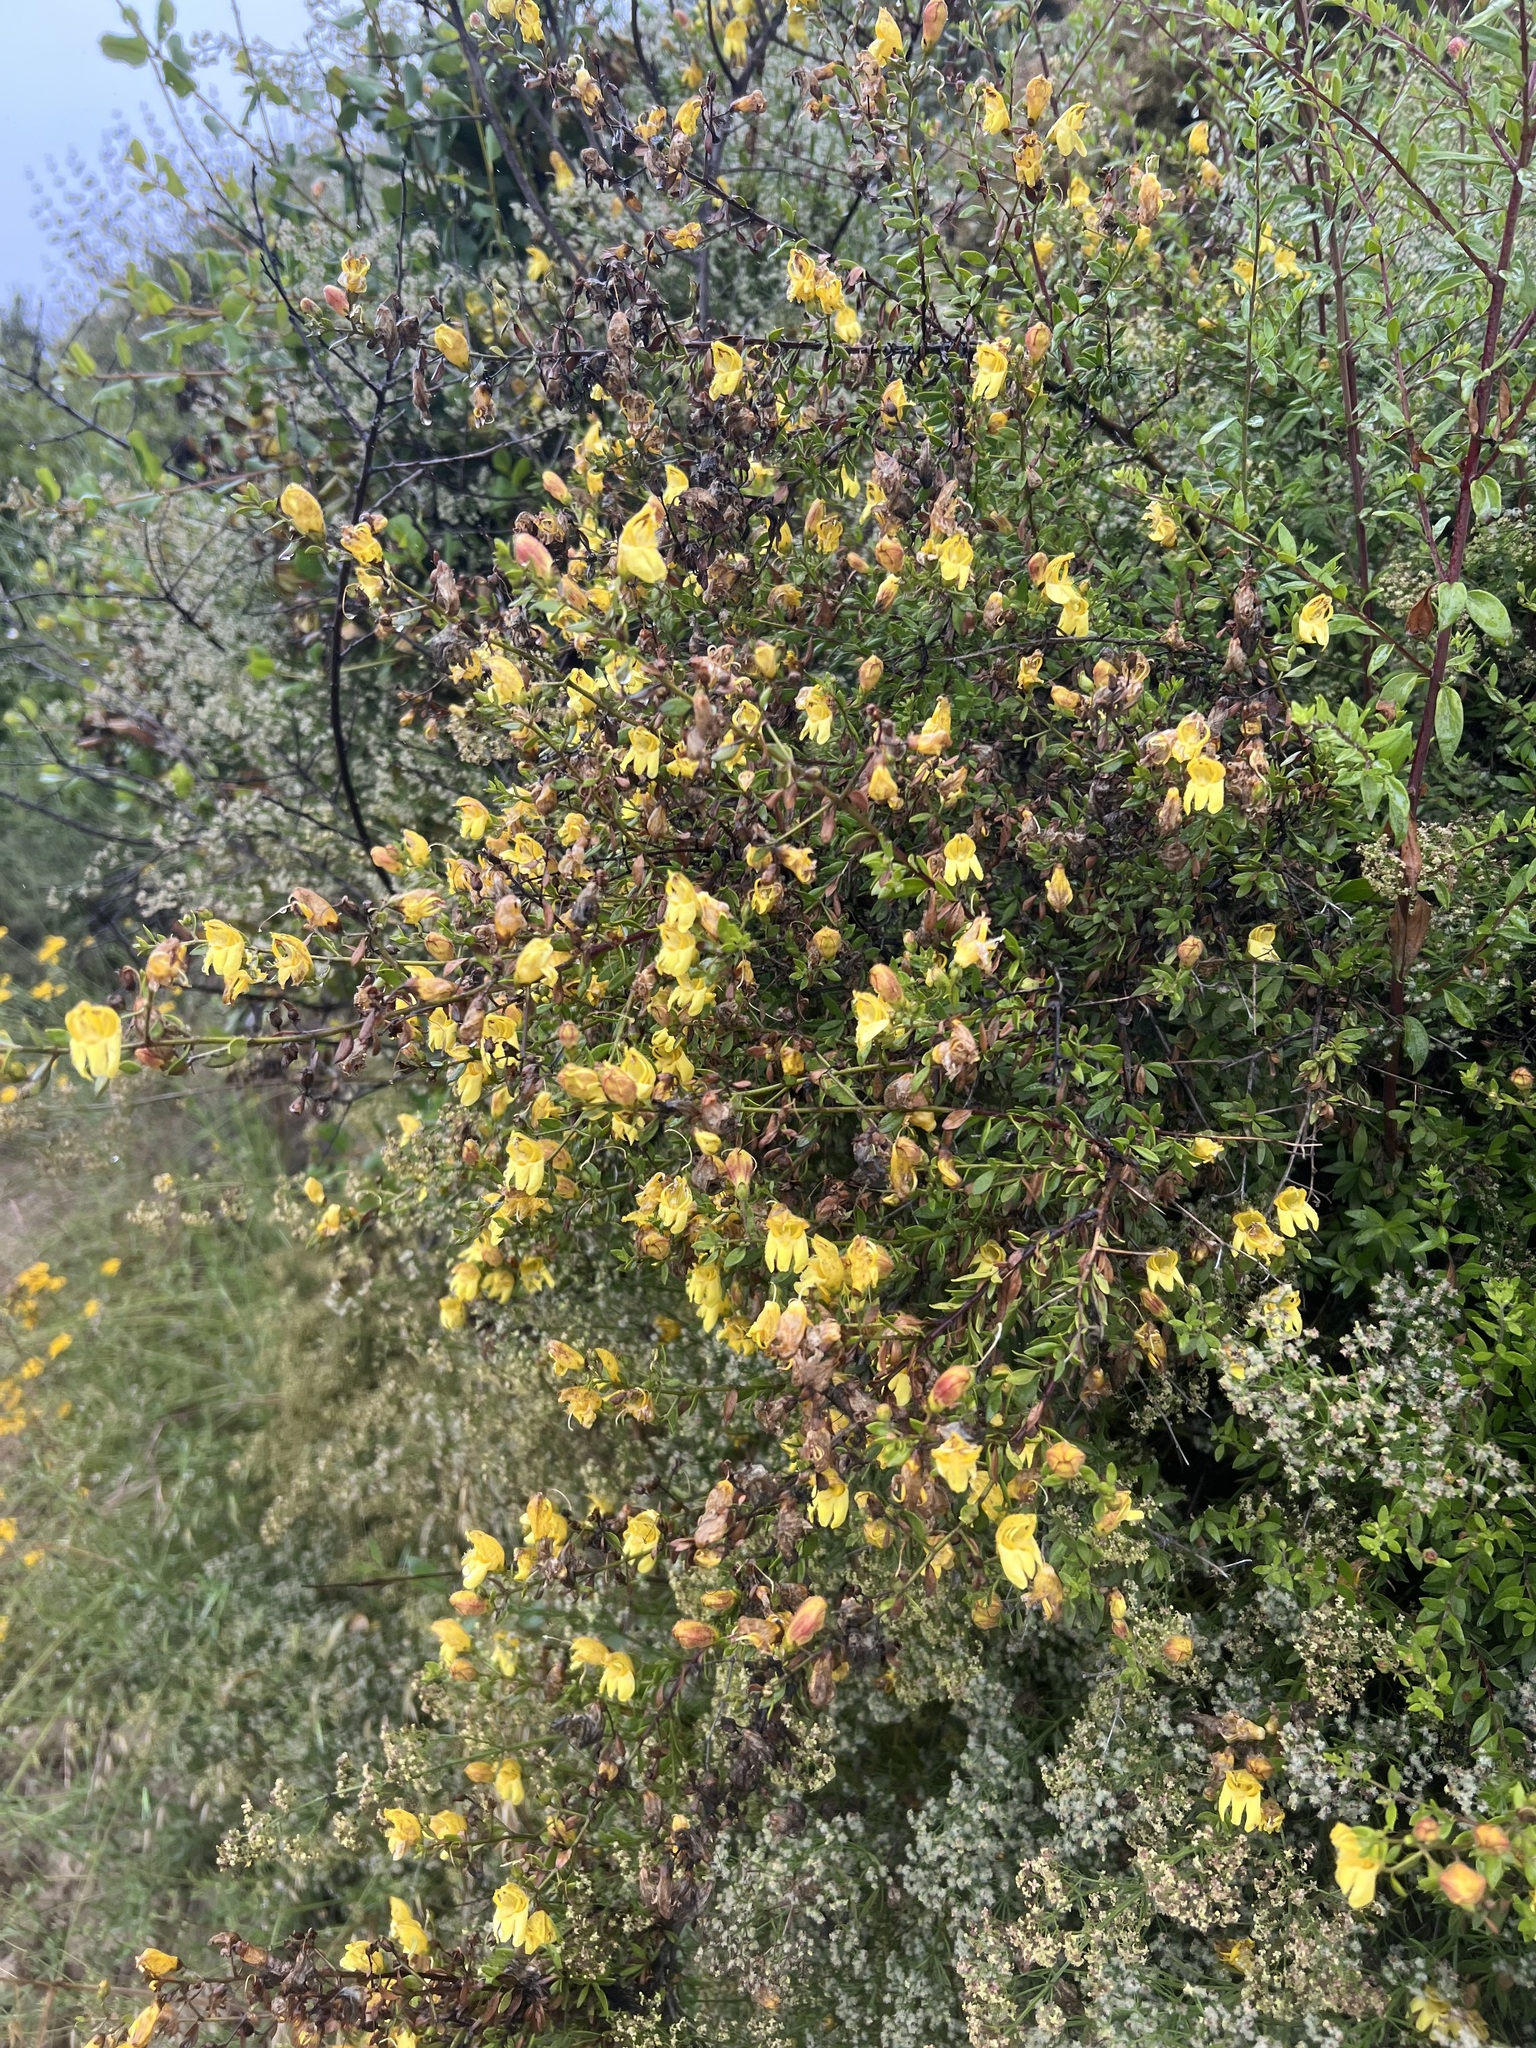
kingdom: Plantae
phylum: Tracheophyta
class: Magnoliopsida
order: Lamiales
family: Plantaginaceae
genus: Keckiella
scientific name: Keckiella antirrhinoides
